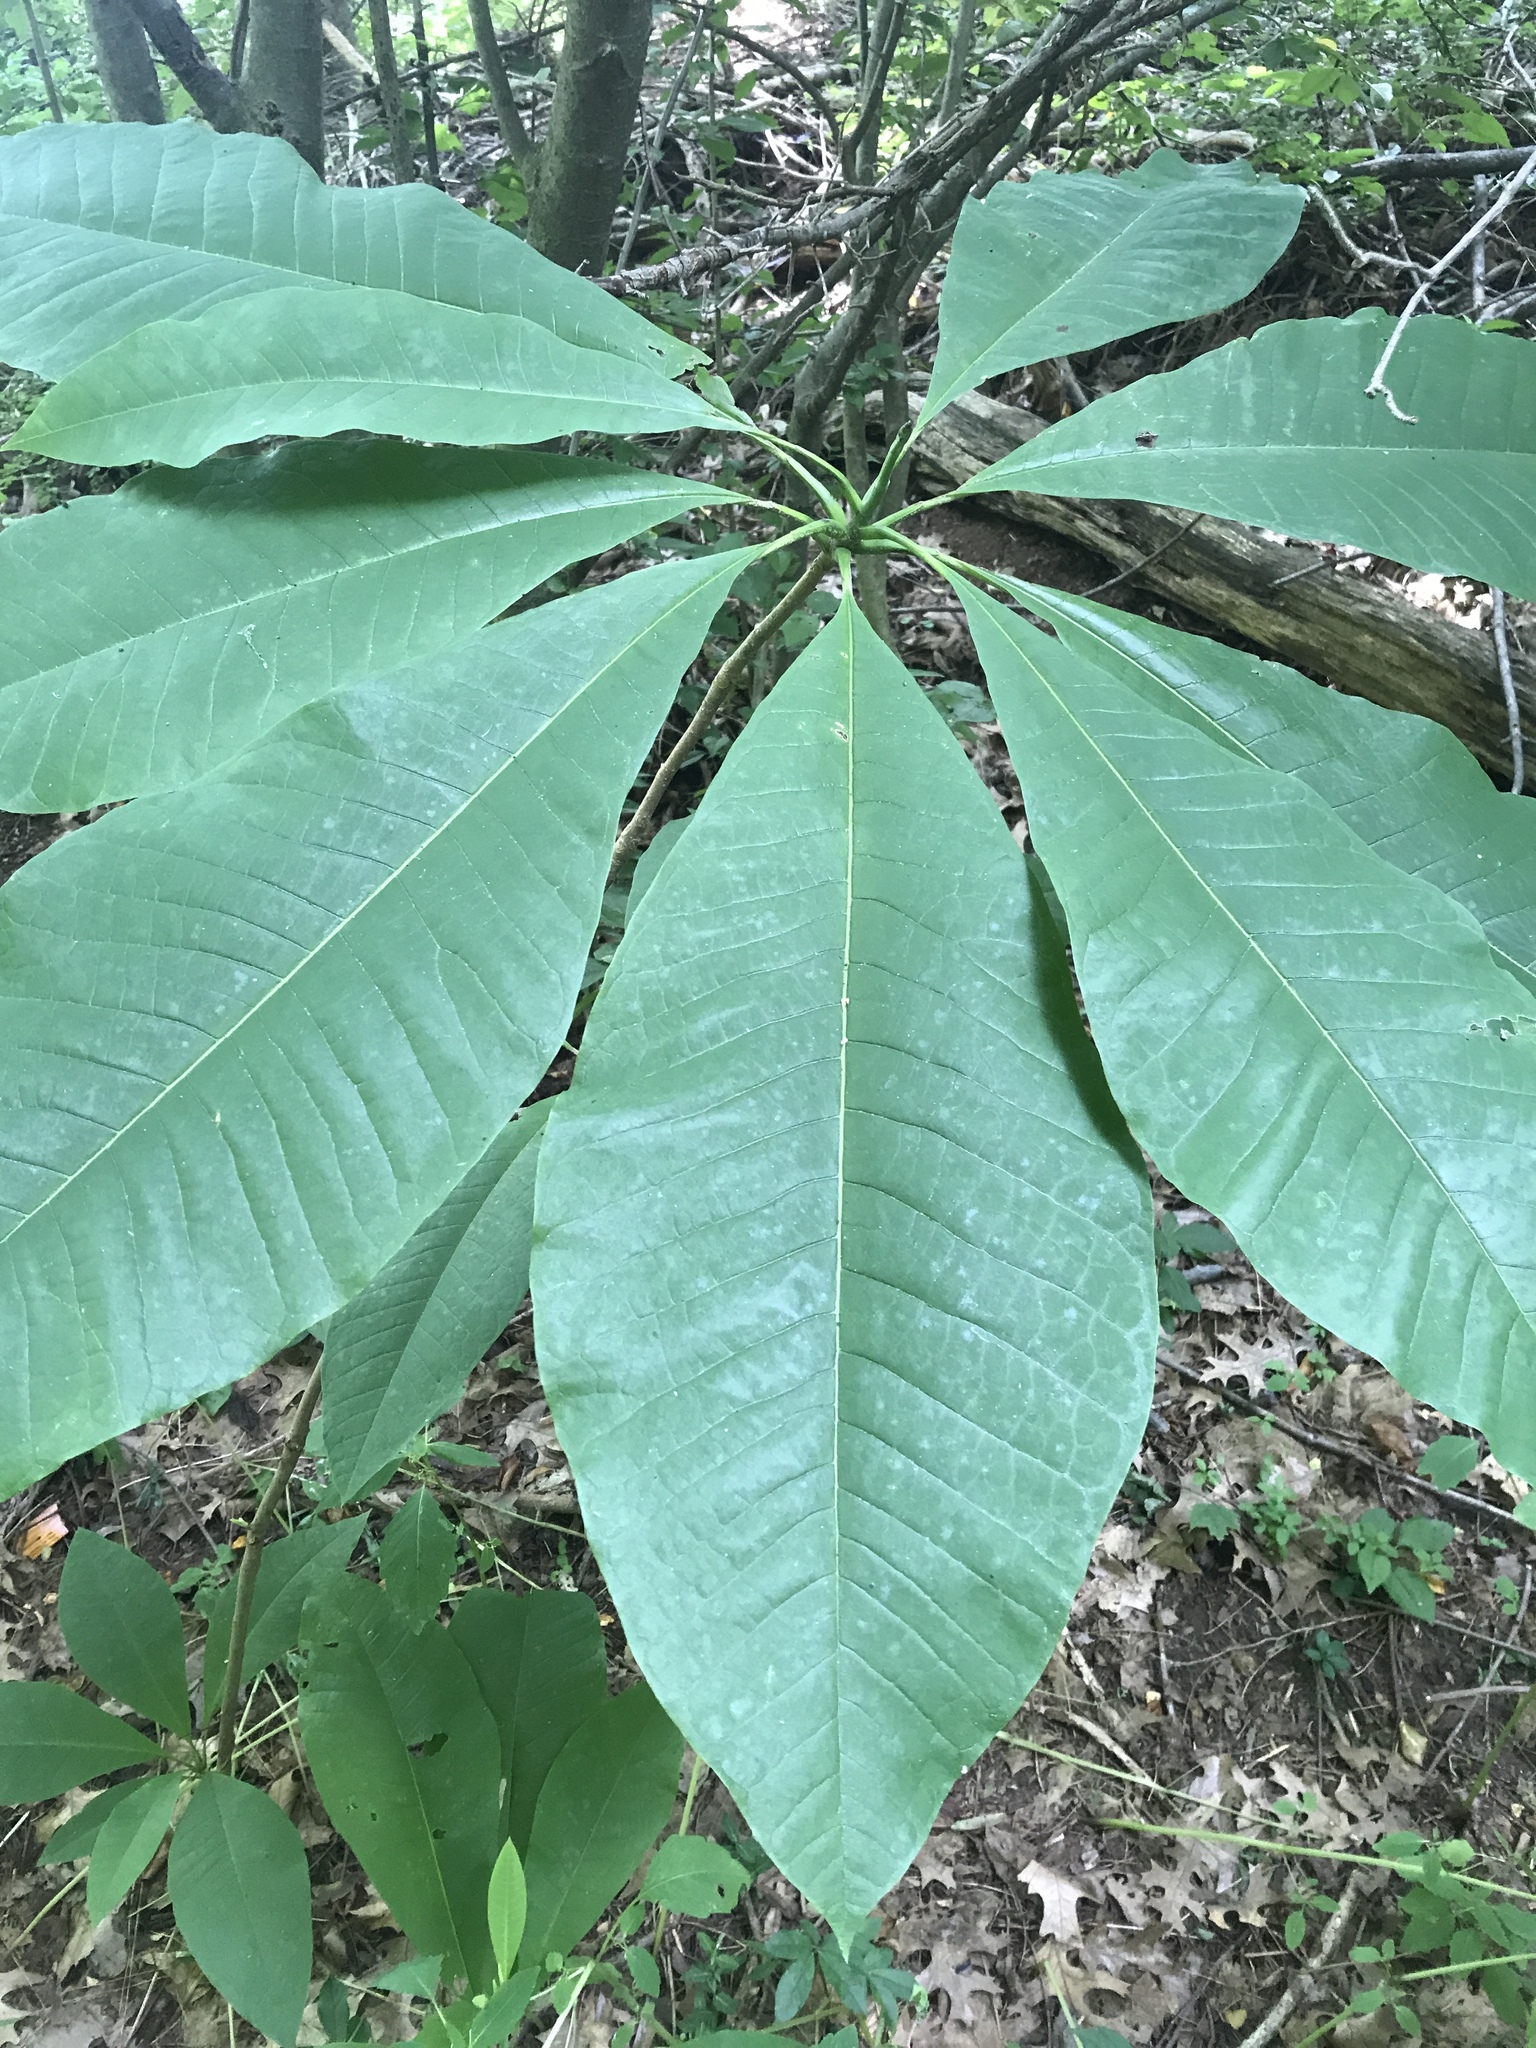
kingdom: Plantae
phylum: Tracheophyta
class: Magnoliopsida
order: Magnoliales
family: Magnoliaceae
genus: Magnolia
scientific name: Magnolia tripetala
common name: Umbrella magnolia
